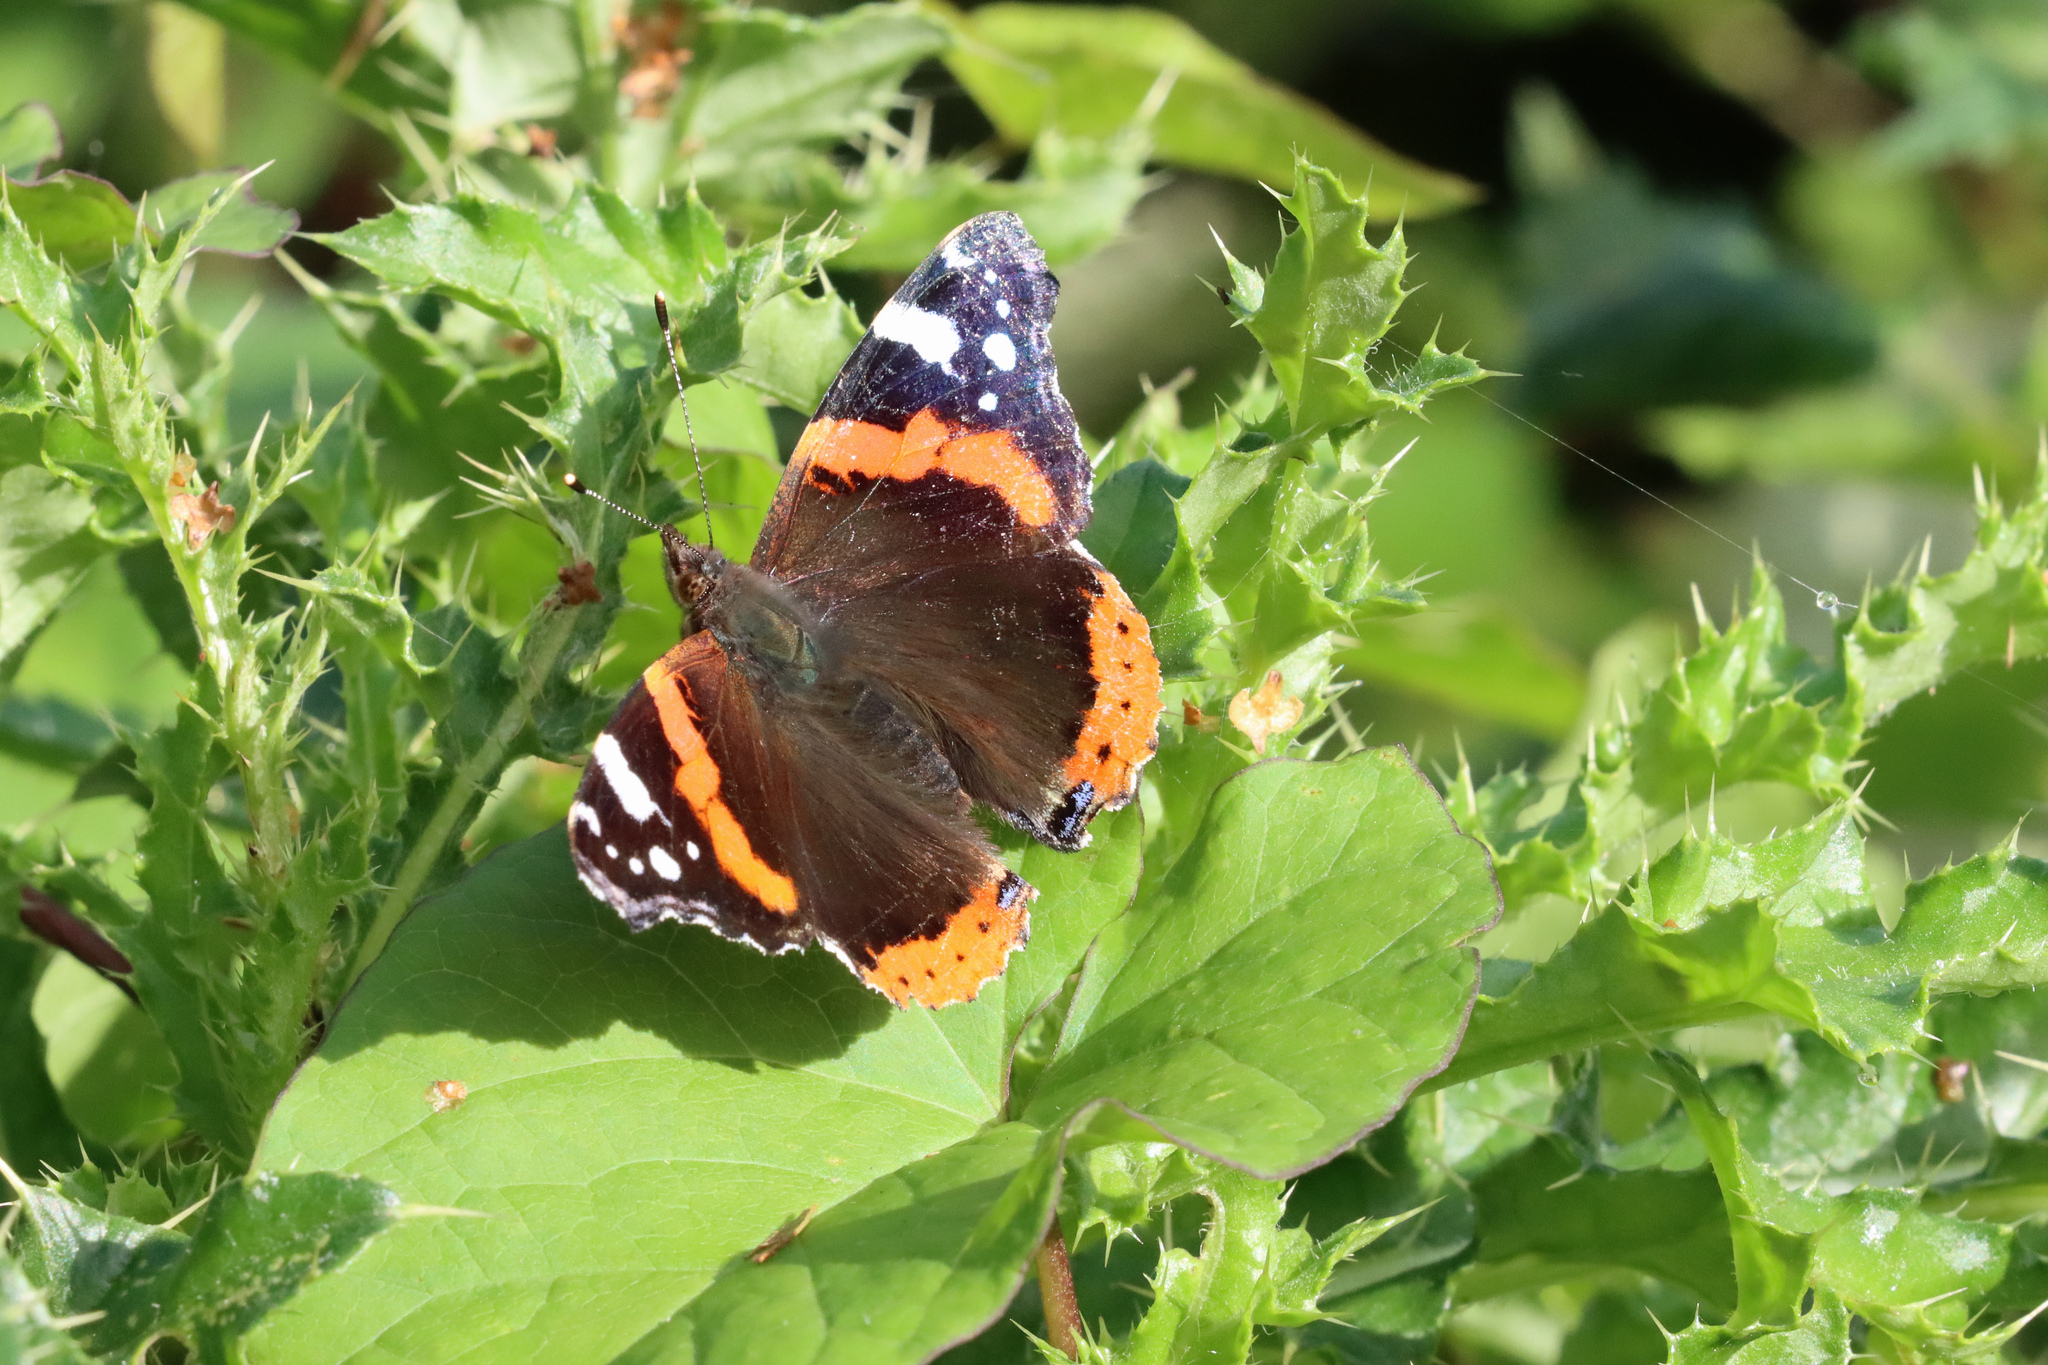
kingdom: Animalia
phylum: Arthropoda
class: Insecta
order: Lepidoptera
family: Nymphalidae
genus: Vanessa
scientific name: Vanessa atalanta
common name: Red admiral
